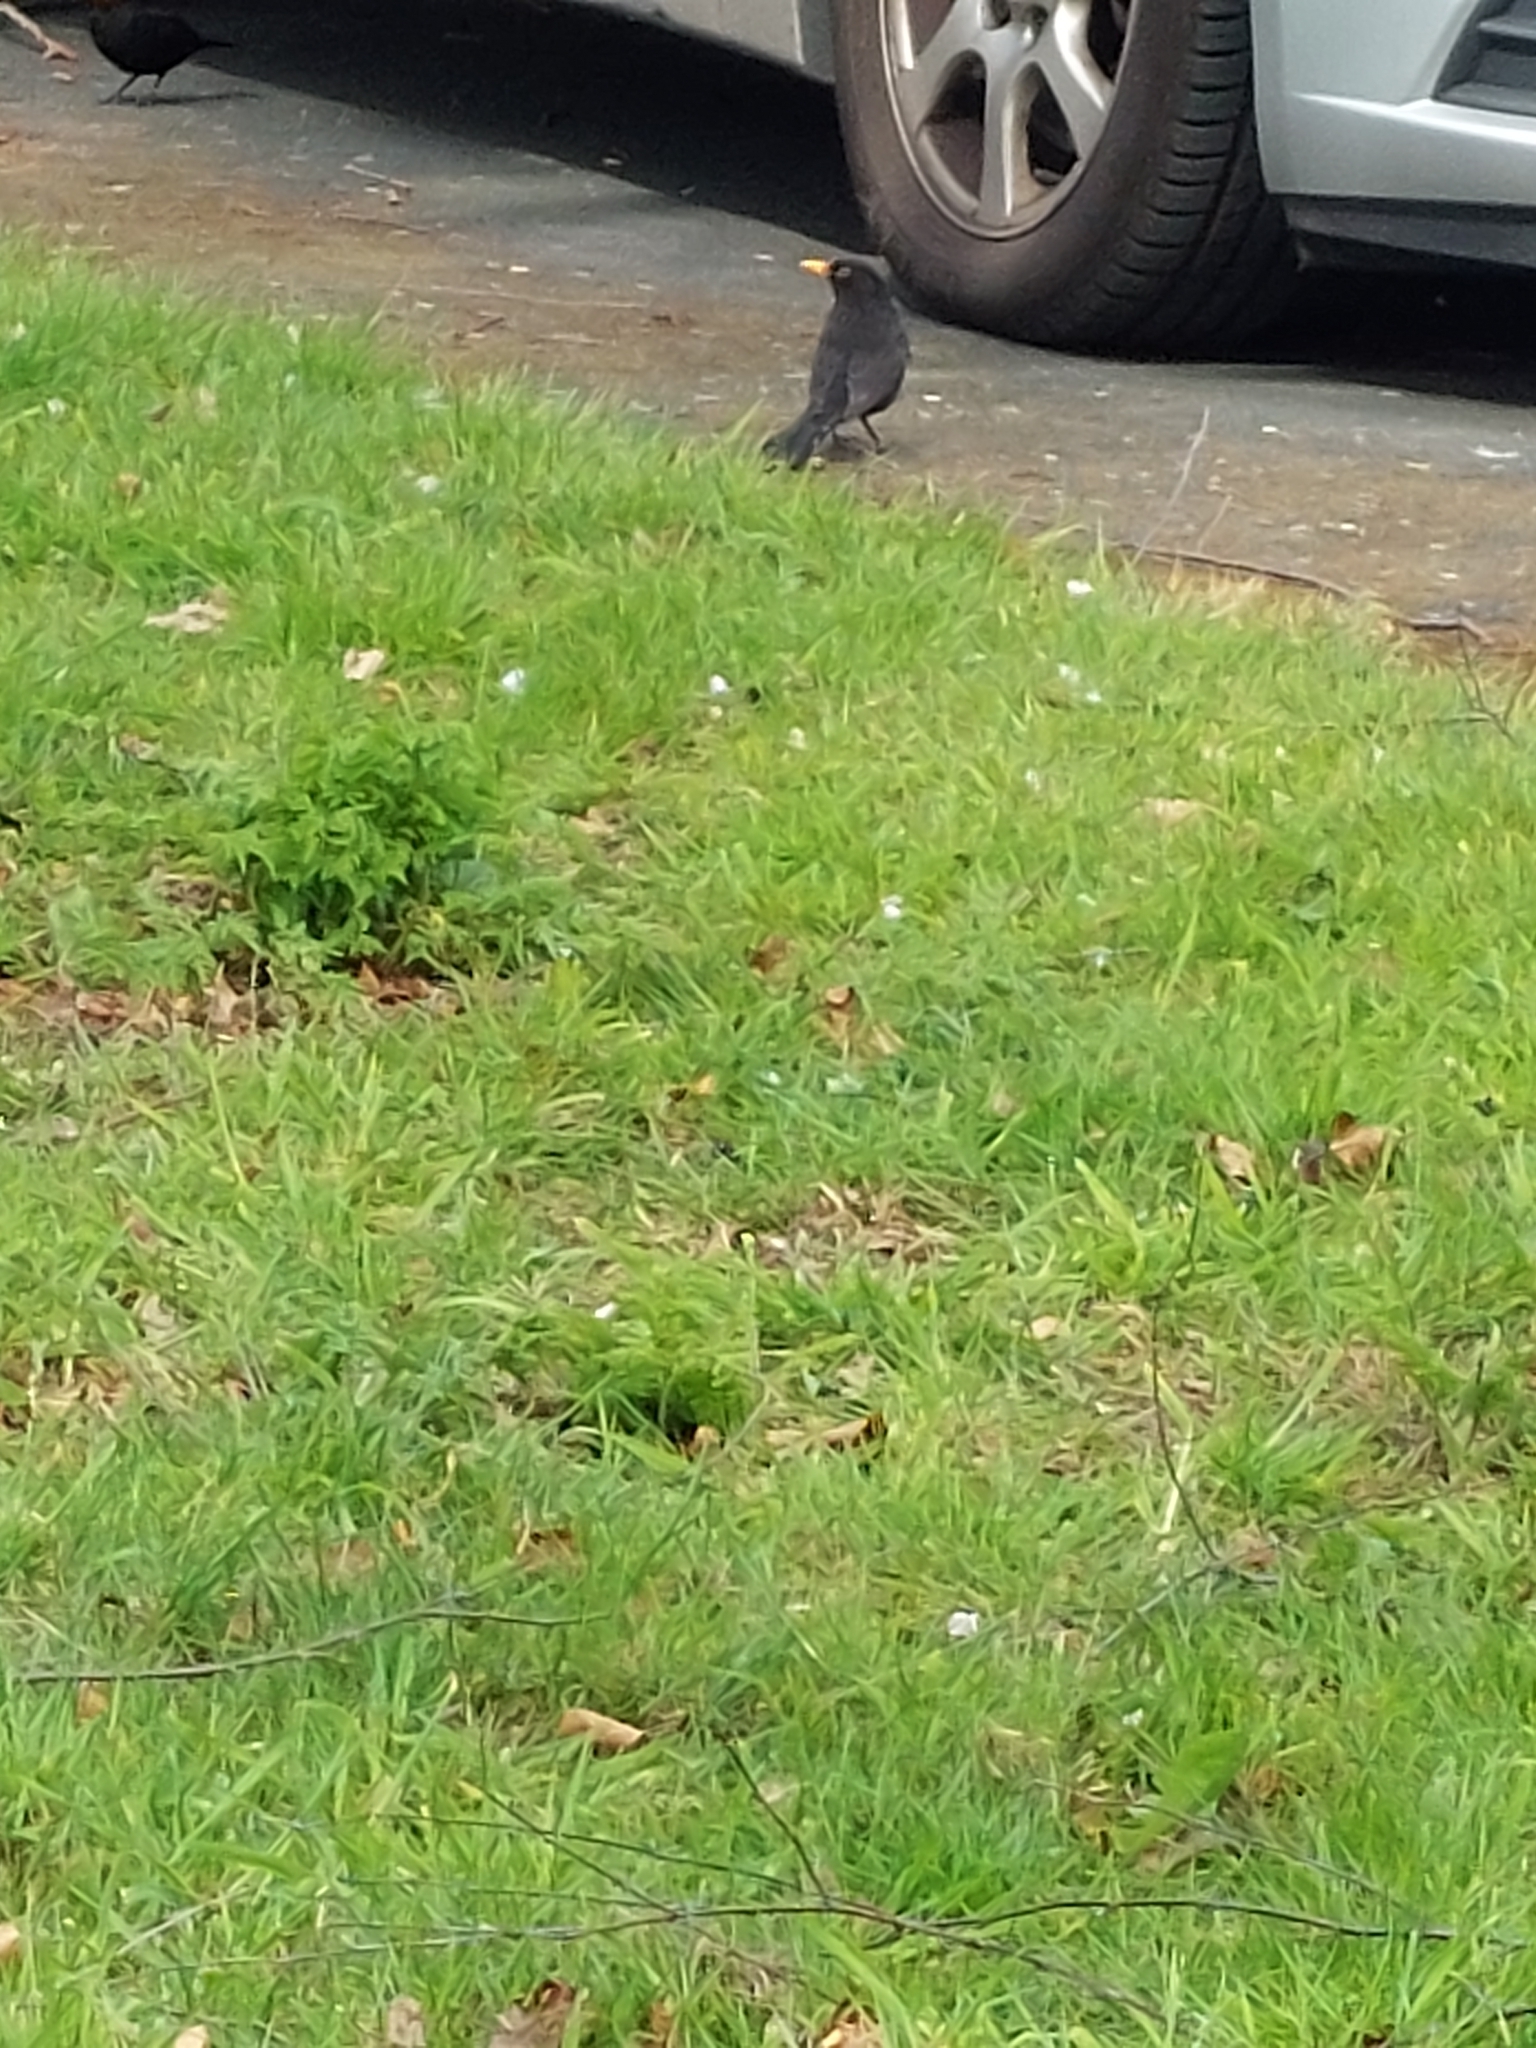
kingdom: Animalia
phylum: Chordata
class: Aves
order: Passeriformes
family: Turdidae
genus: Turdus
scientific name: Turdus merula
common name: Common blackbird
